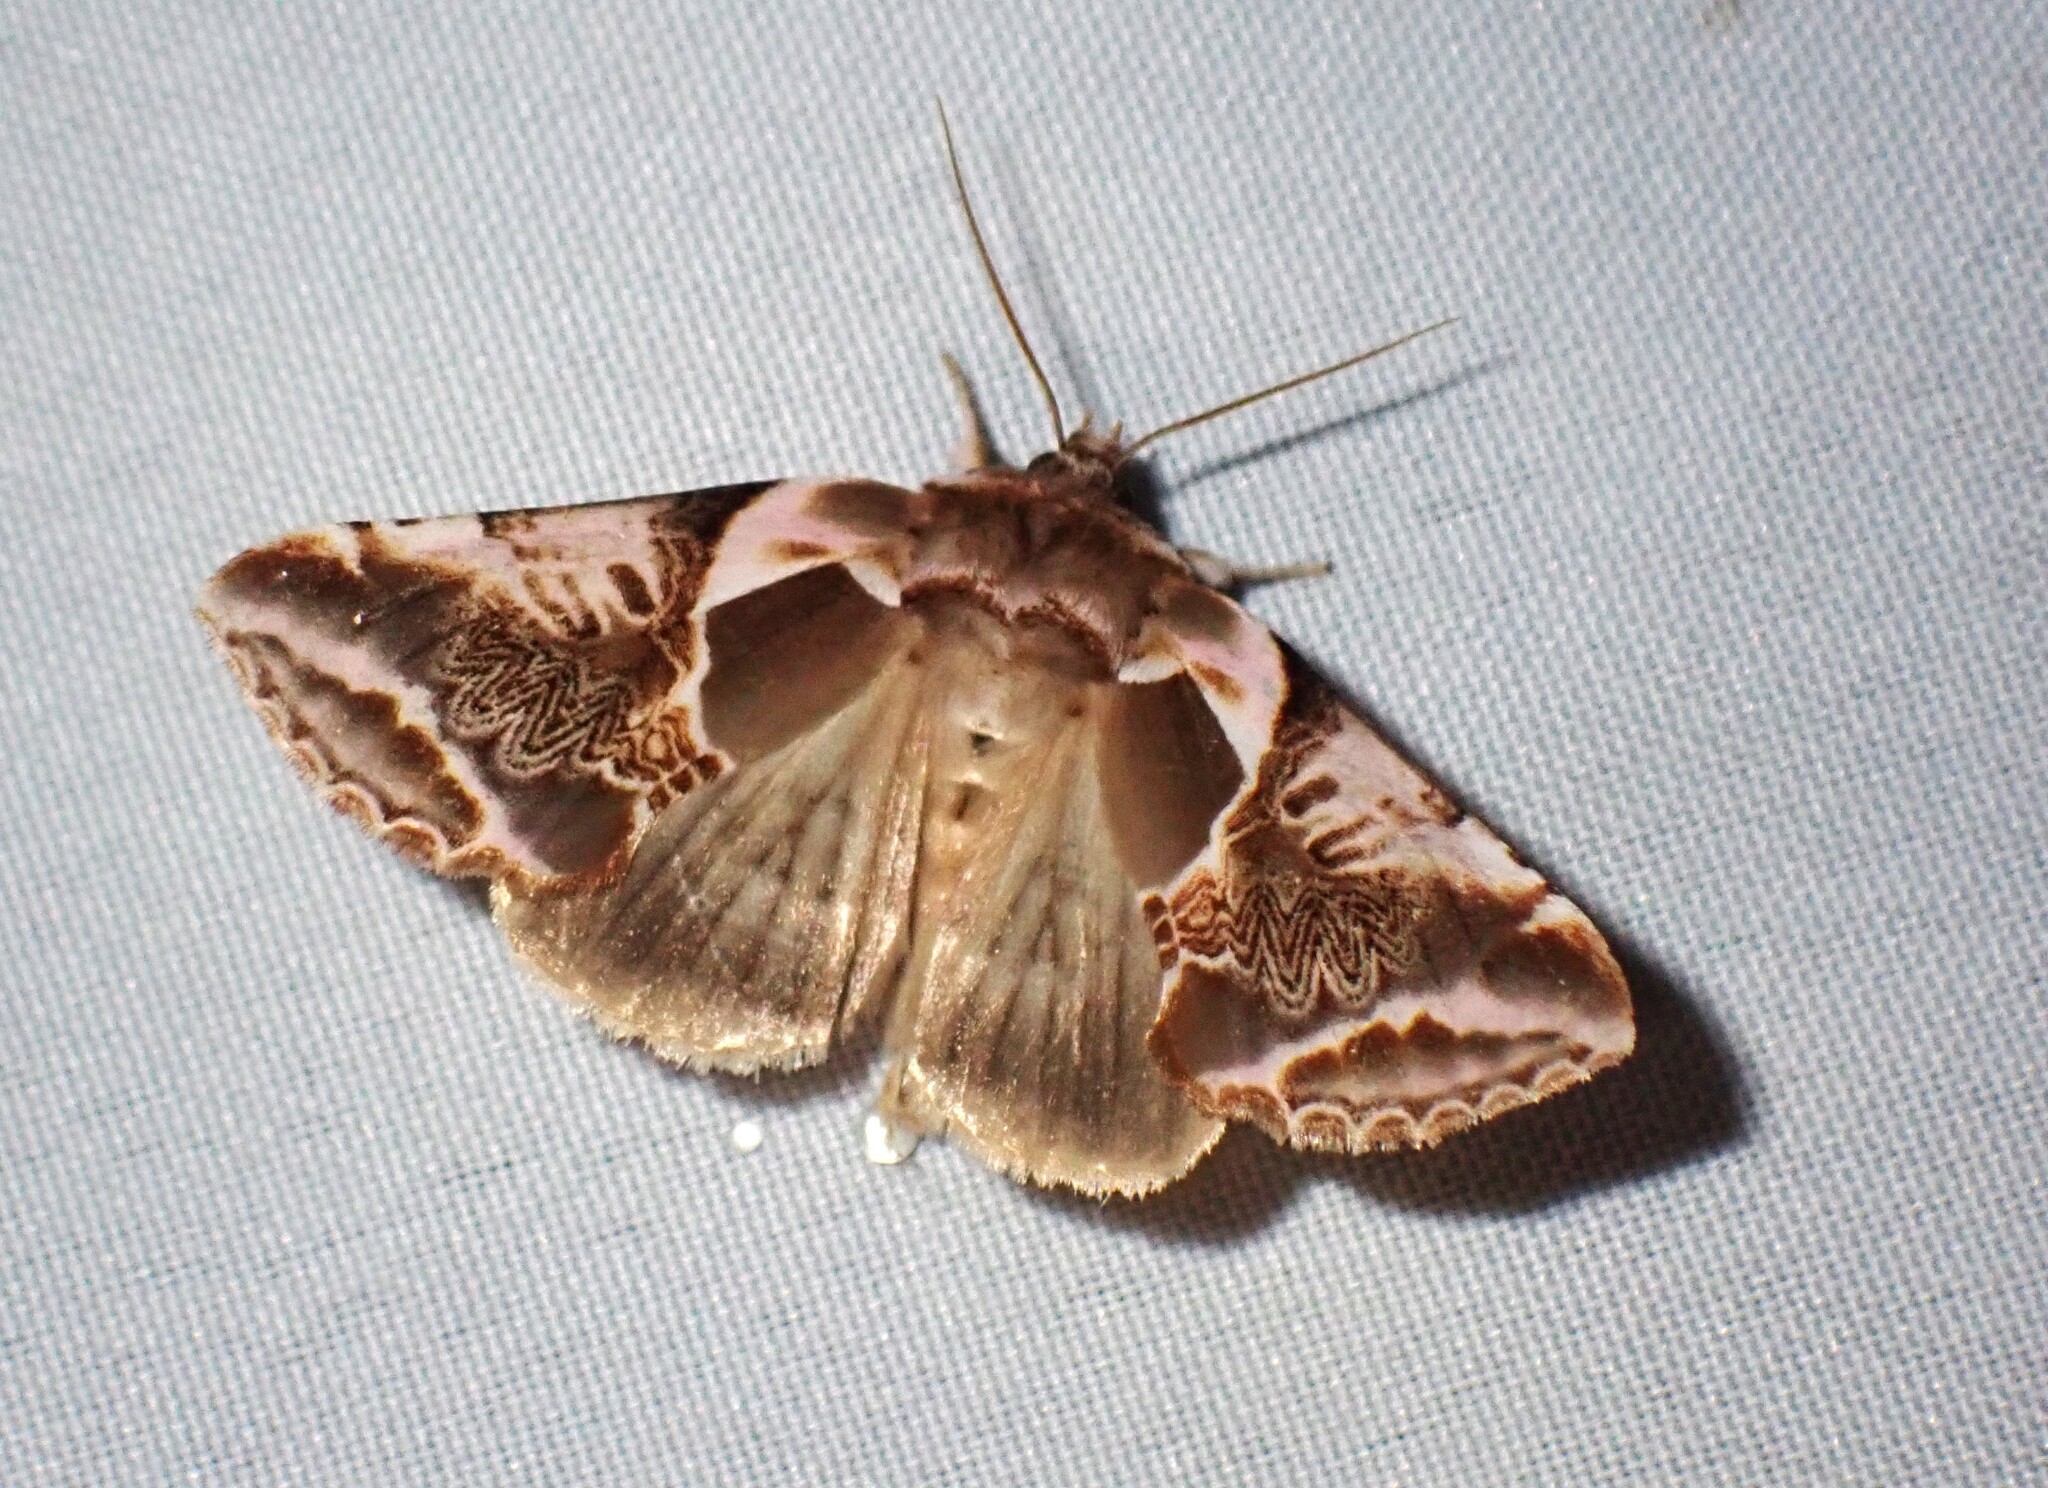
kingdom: Animalia
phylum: Arthropoda
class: Insecta
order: Lepidoptera
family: Drepanidae
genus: Habrosyne
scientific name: Habrosyne scripta
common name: Lettered habrosyne moth
